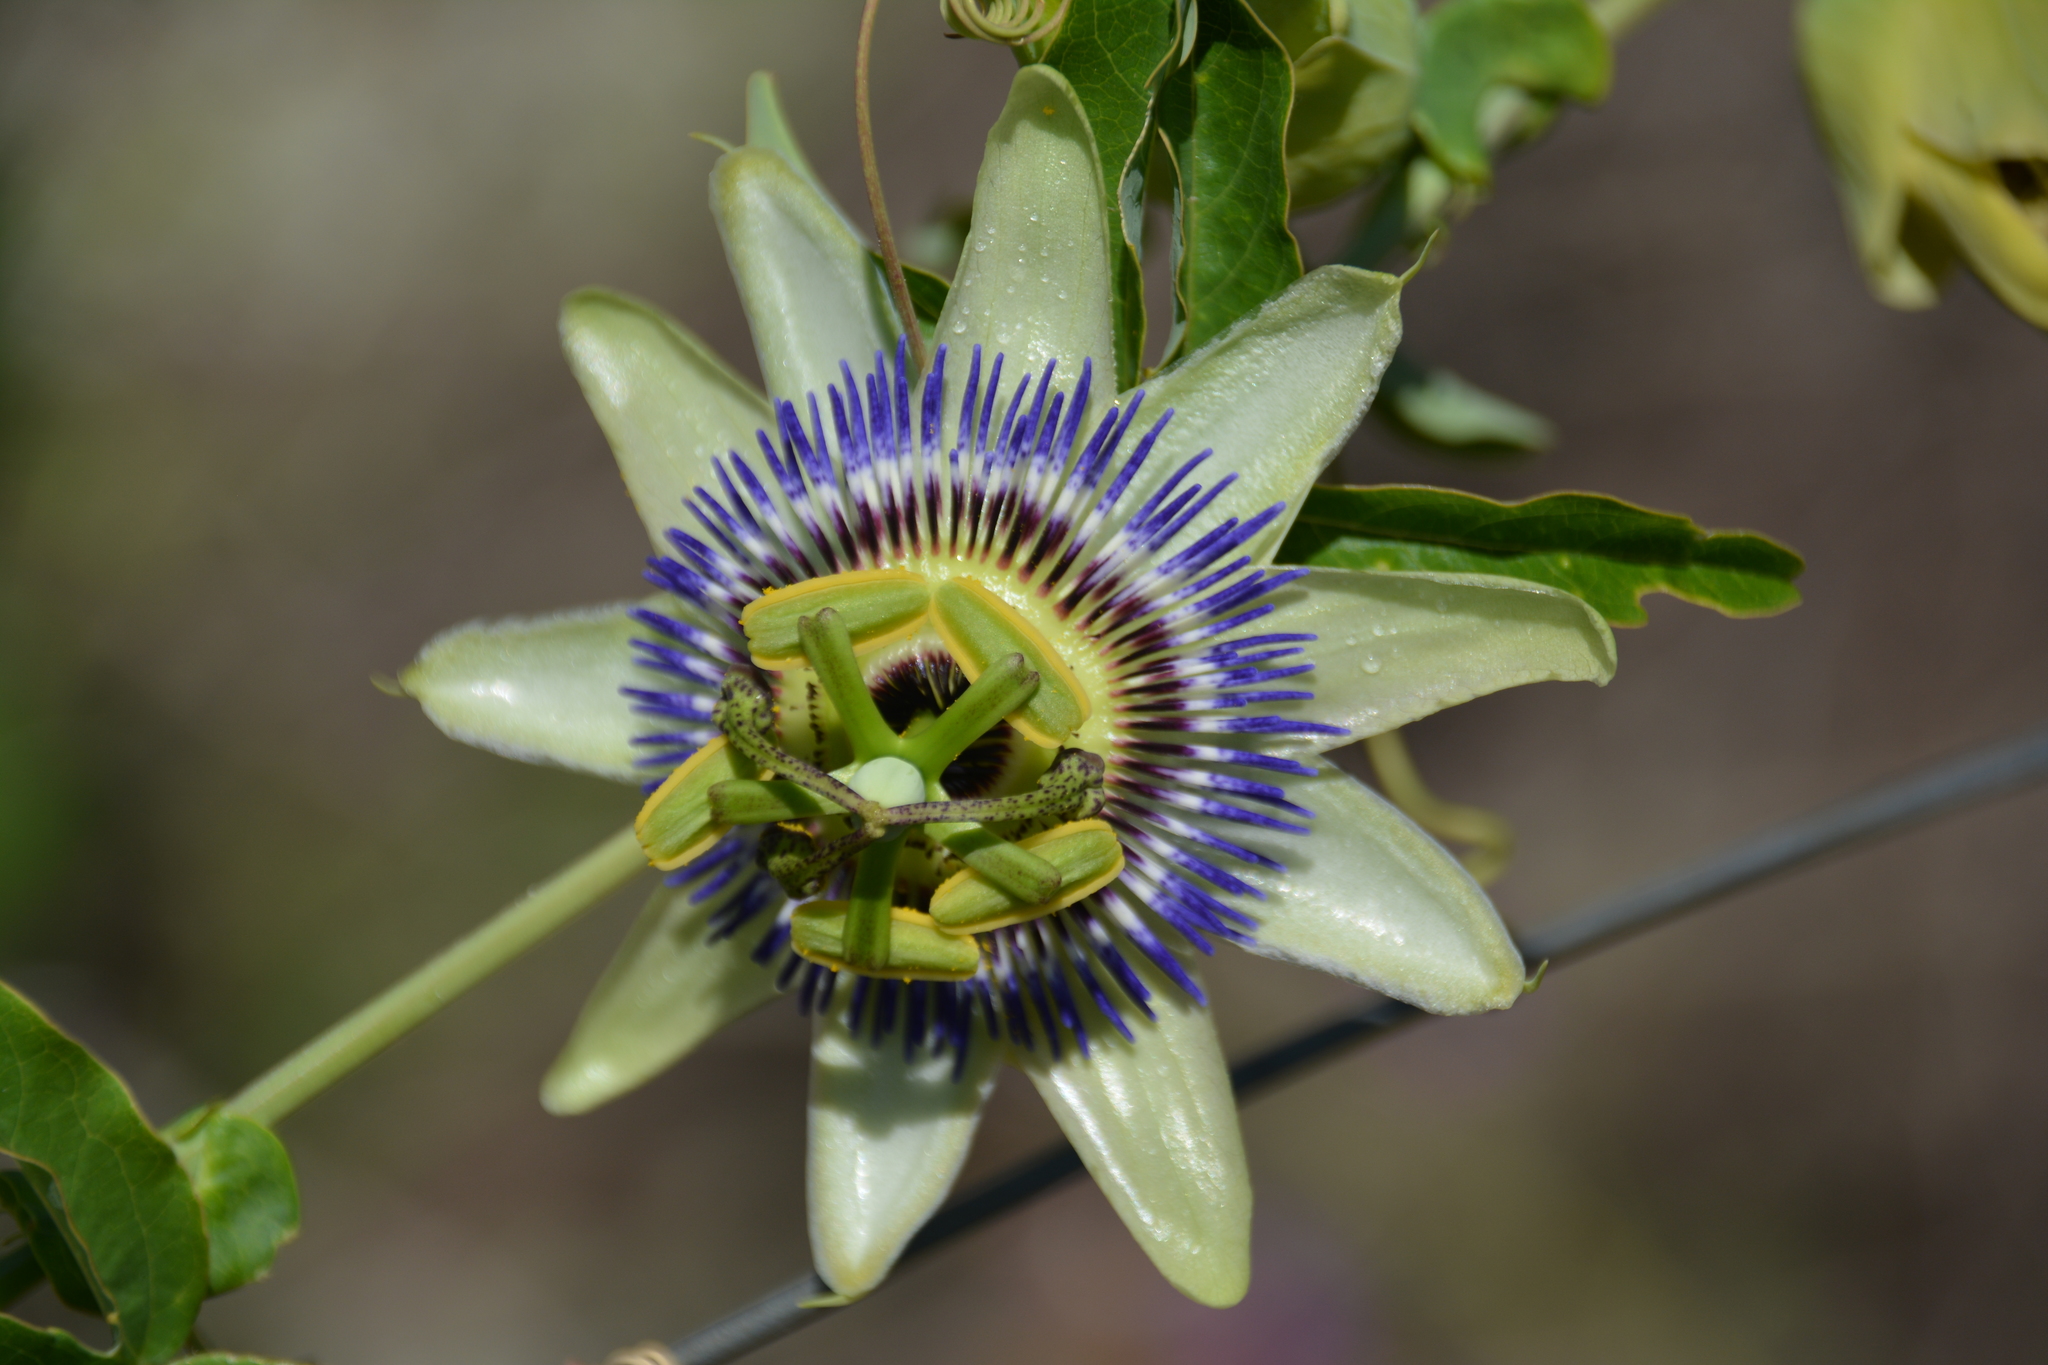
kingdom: Plantae
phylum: Tracheophyta
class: Magnoliopsida
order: Malpighiales
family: Passifloraceae
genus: Passiflora
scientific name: Passiflora caerulea
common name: Blue passionflower
